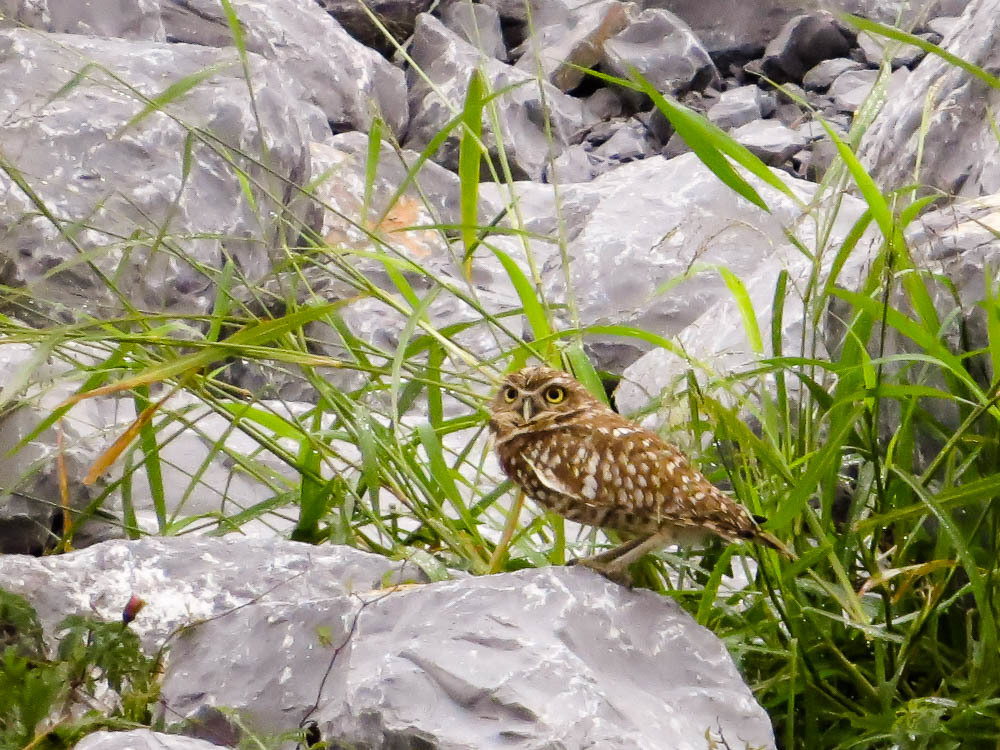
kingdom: Animalia
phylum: Chordata
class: Aves
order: Strigiformes
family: Strigidae
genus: Athene
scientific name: Athene cunicularia
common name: Burrowing owl
